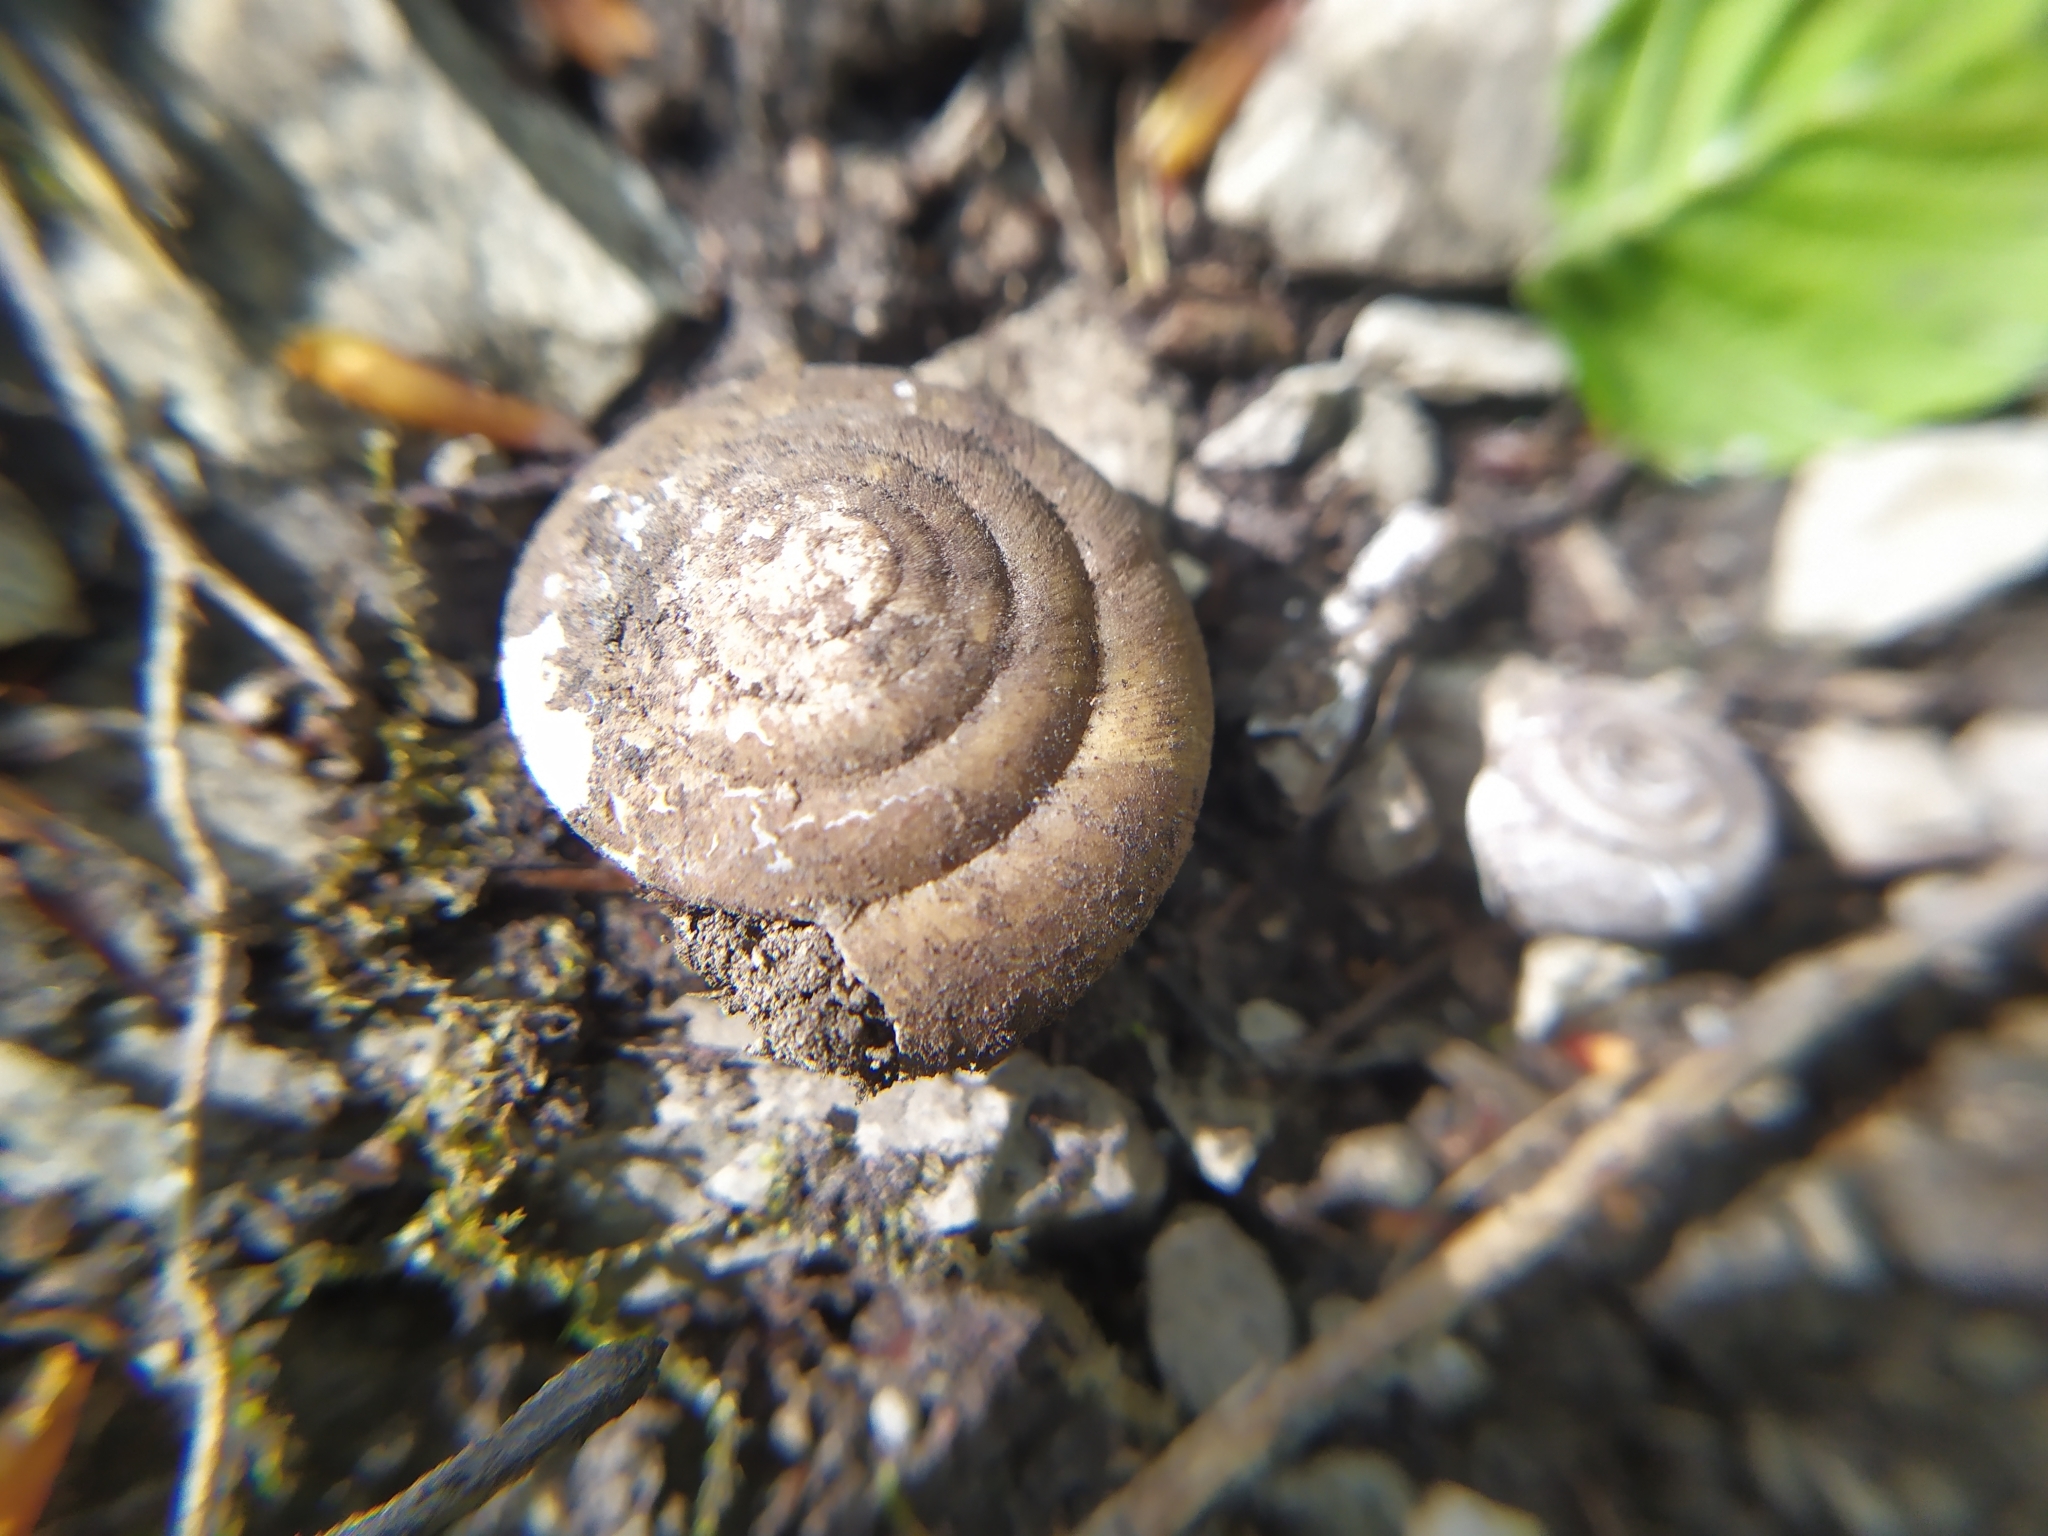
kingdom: Animalia
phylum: Mollusca
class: Gastropoda
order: Stylommatophora
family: Zonitidae
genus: Aegopis
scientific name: Aegopis verticillus
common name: Giant glass snail
